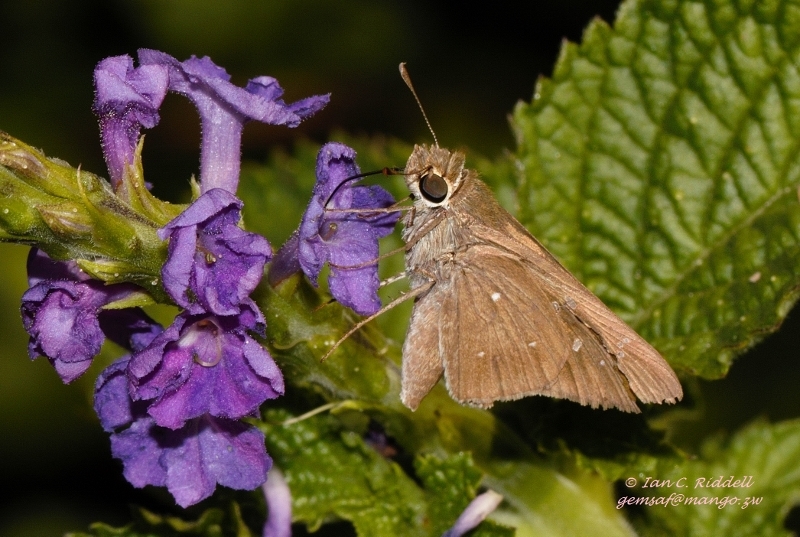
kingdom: Plantae
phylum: Tracheophyta
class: Magnoliopsida
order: Lamiales
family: Verbenaceae
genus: Stachytarpheta
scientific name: Stachytarpheta jamaicensis
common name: Light-blue snakeweed
